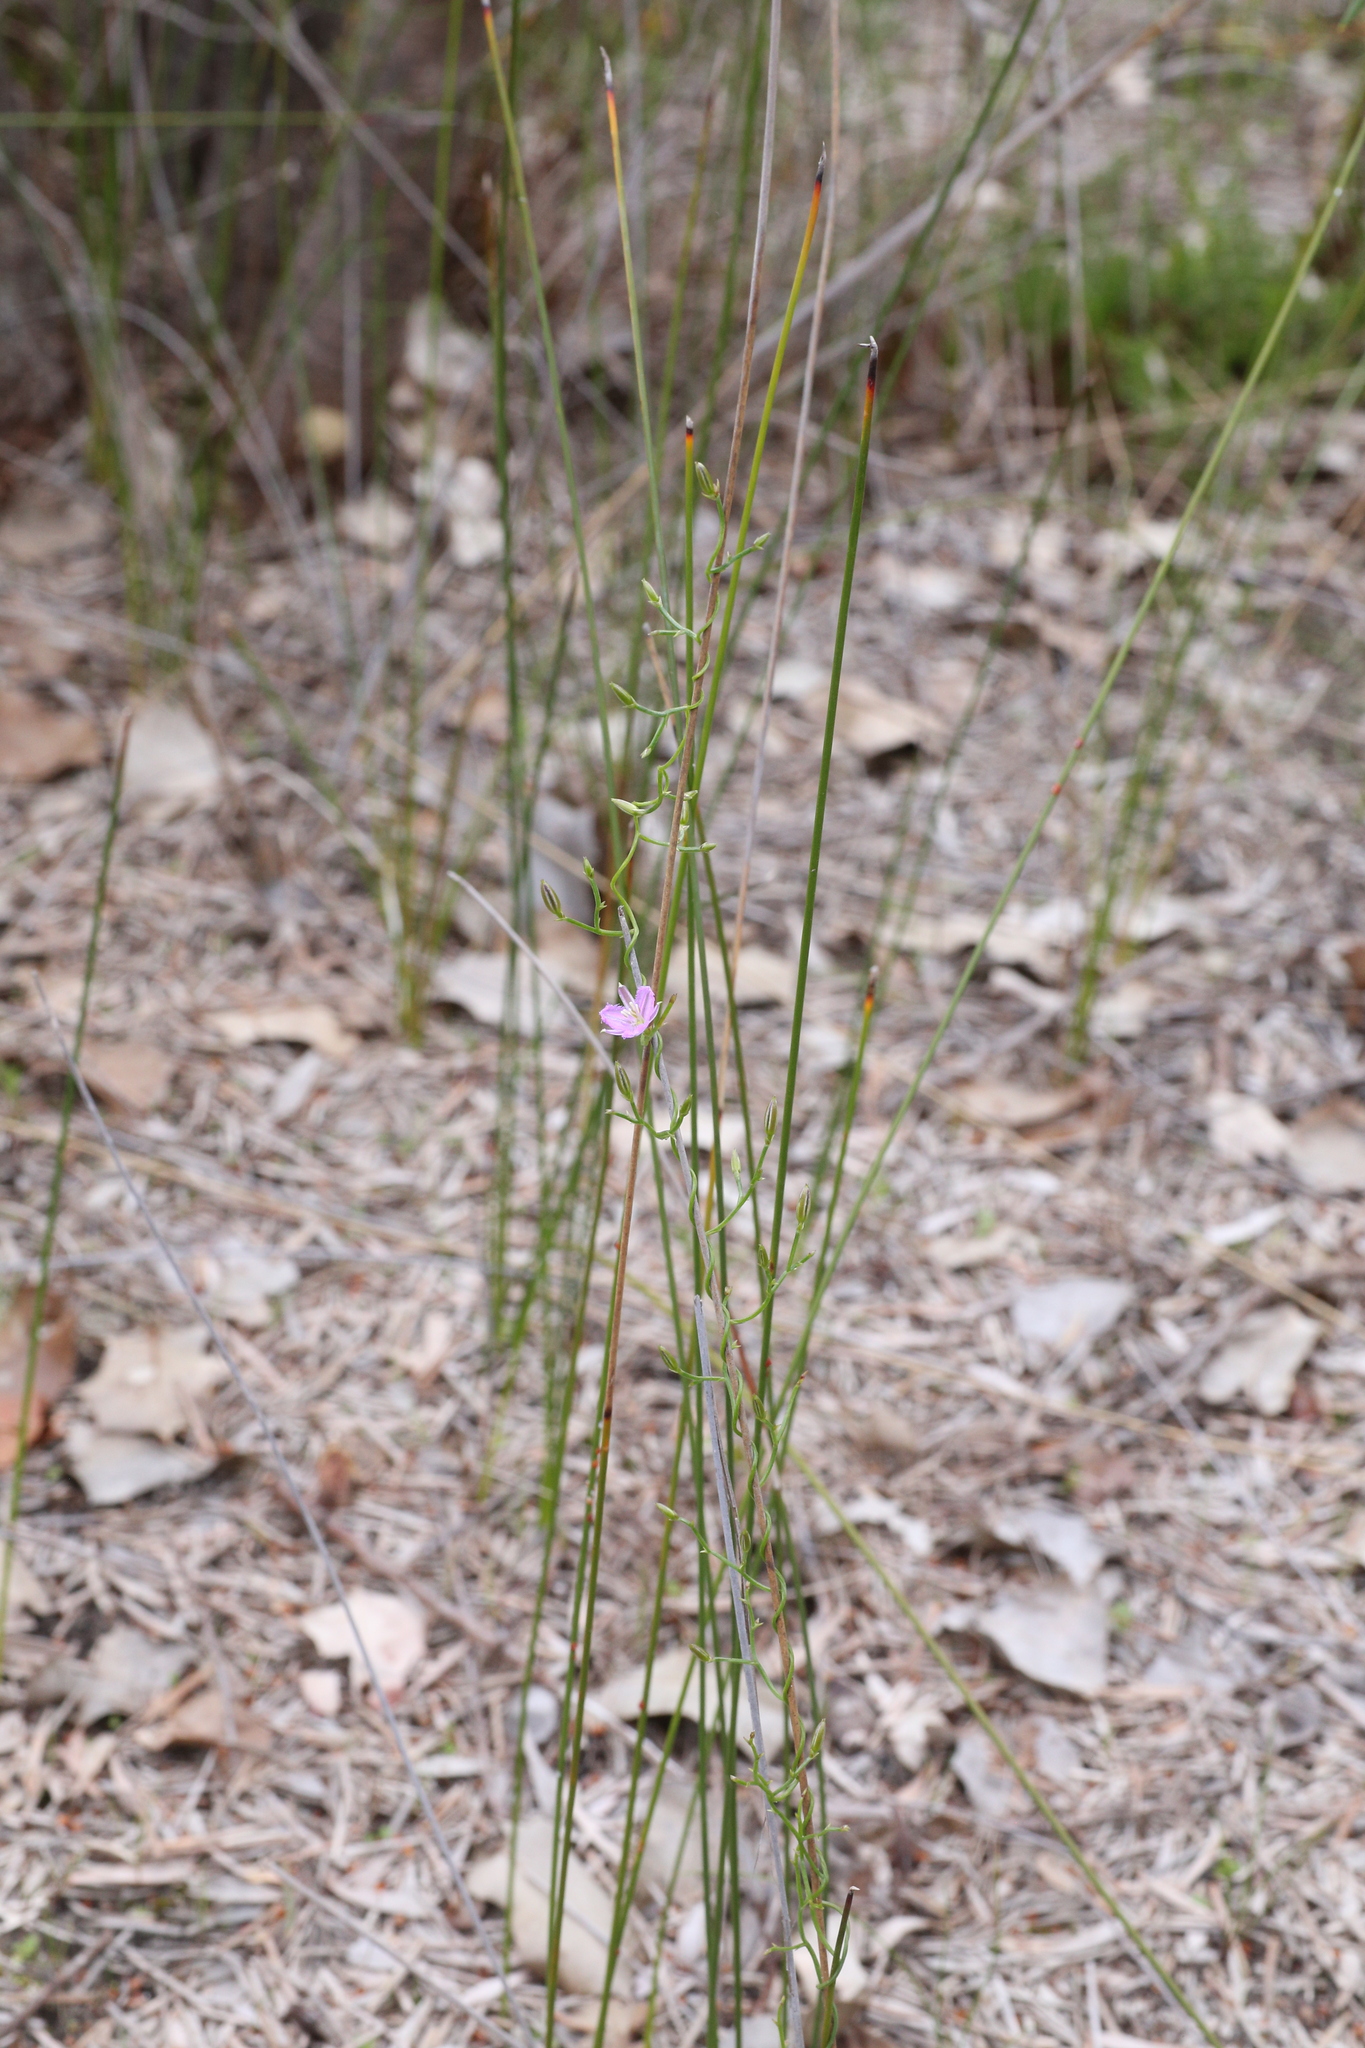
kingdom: Plantae
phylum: Tracheophyta
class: Liliopsida
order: Asparagales
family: Asparagaceae
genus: Thysanotus
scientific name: Thysanotus patersonii
